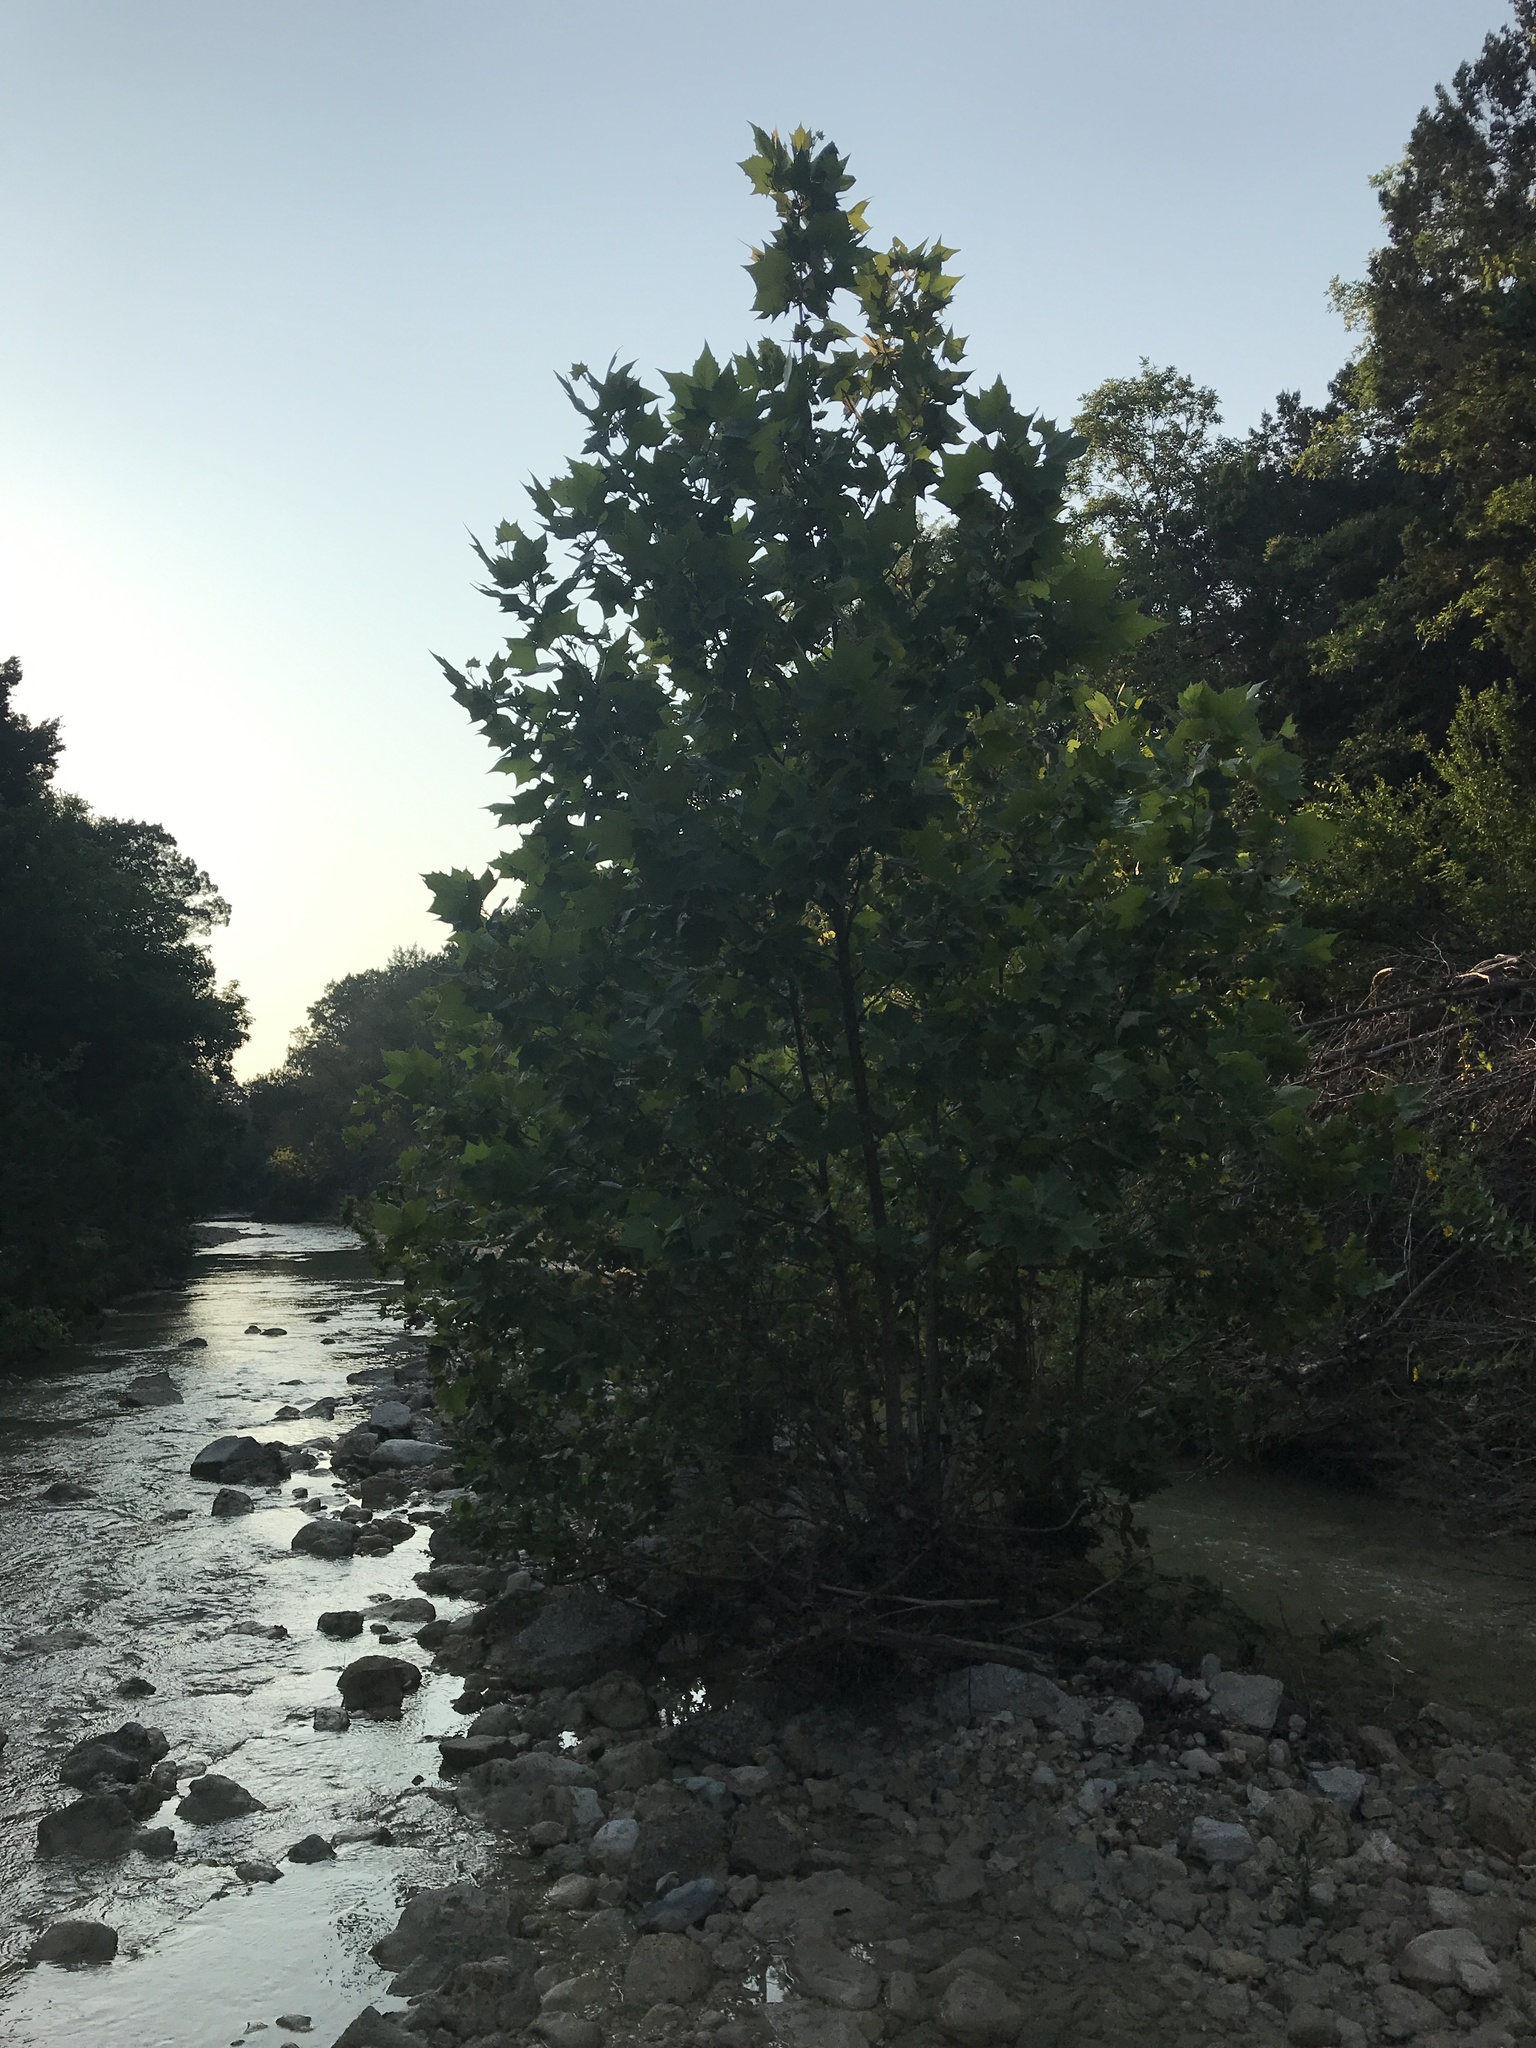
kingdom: Plantae
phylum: Tracheophyta
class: Magnoliopsida
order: Proteales
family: Platanaceae
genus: Platanus
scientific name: Platanus occidentalis
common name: American sycamore
